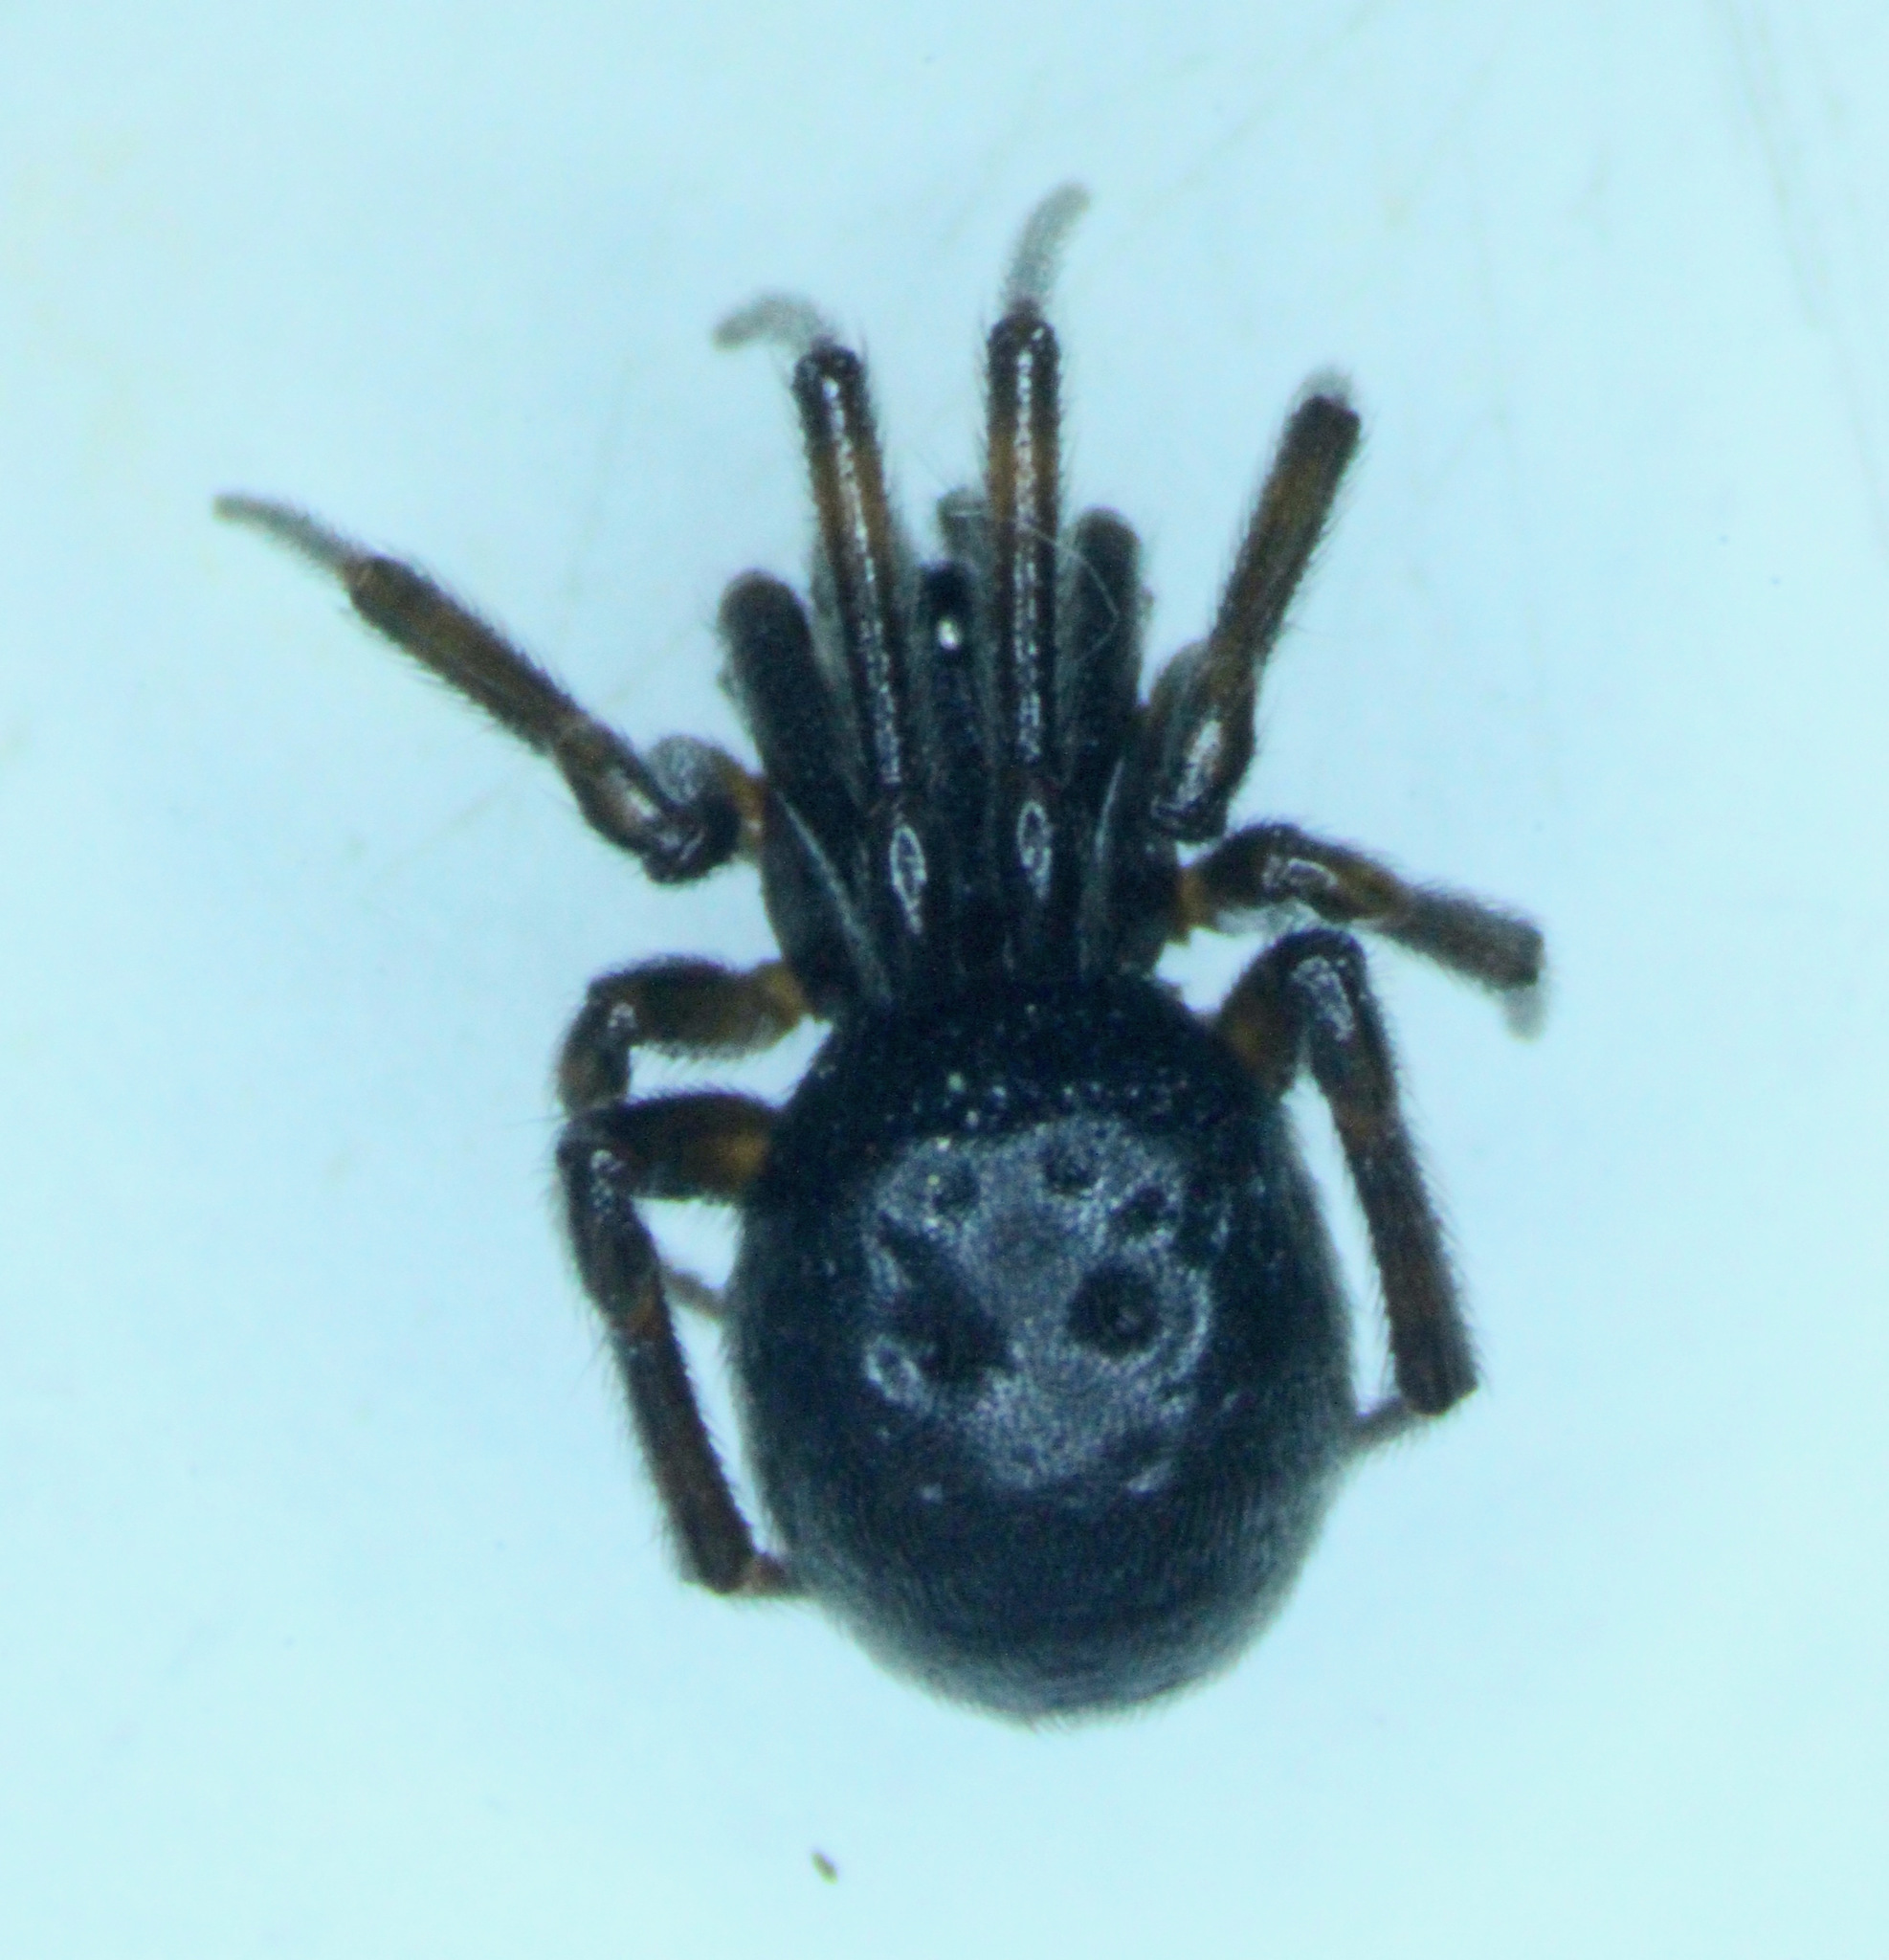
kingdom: Animalia
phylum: Arthropoda
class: Arachnida
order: Araneae
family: Theridiidae
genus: Steatoda
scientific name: Steatoda borealis
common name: Boreal combfoot
